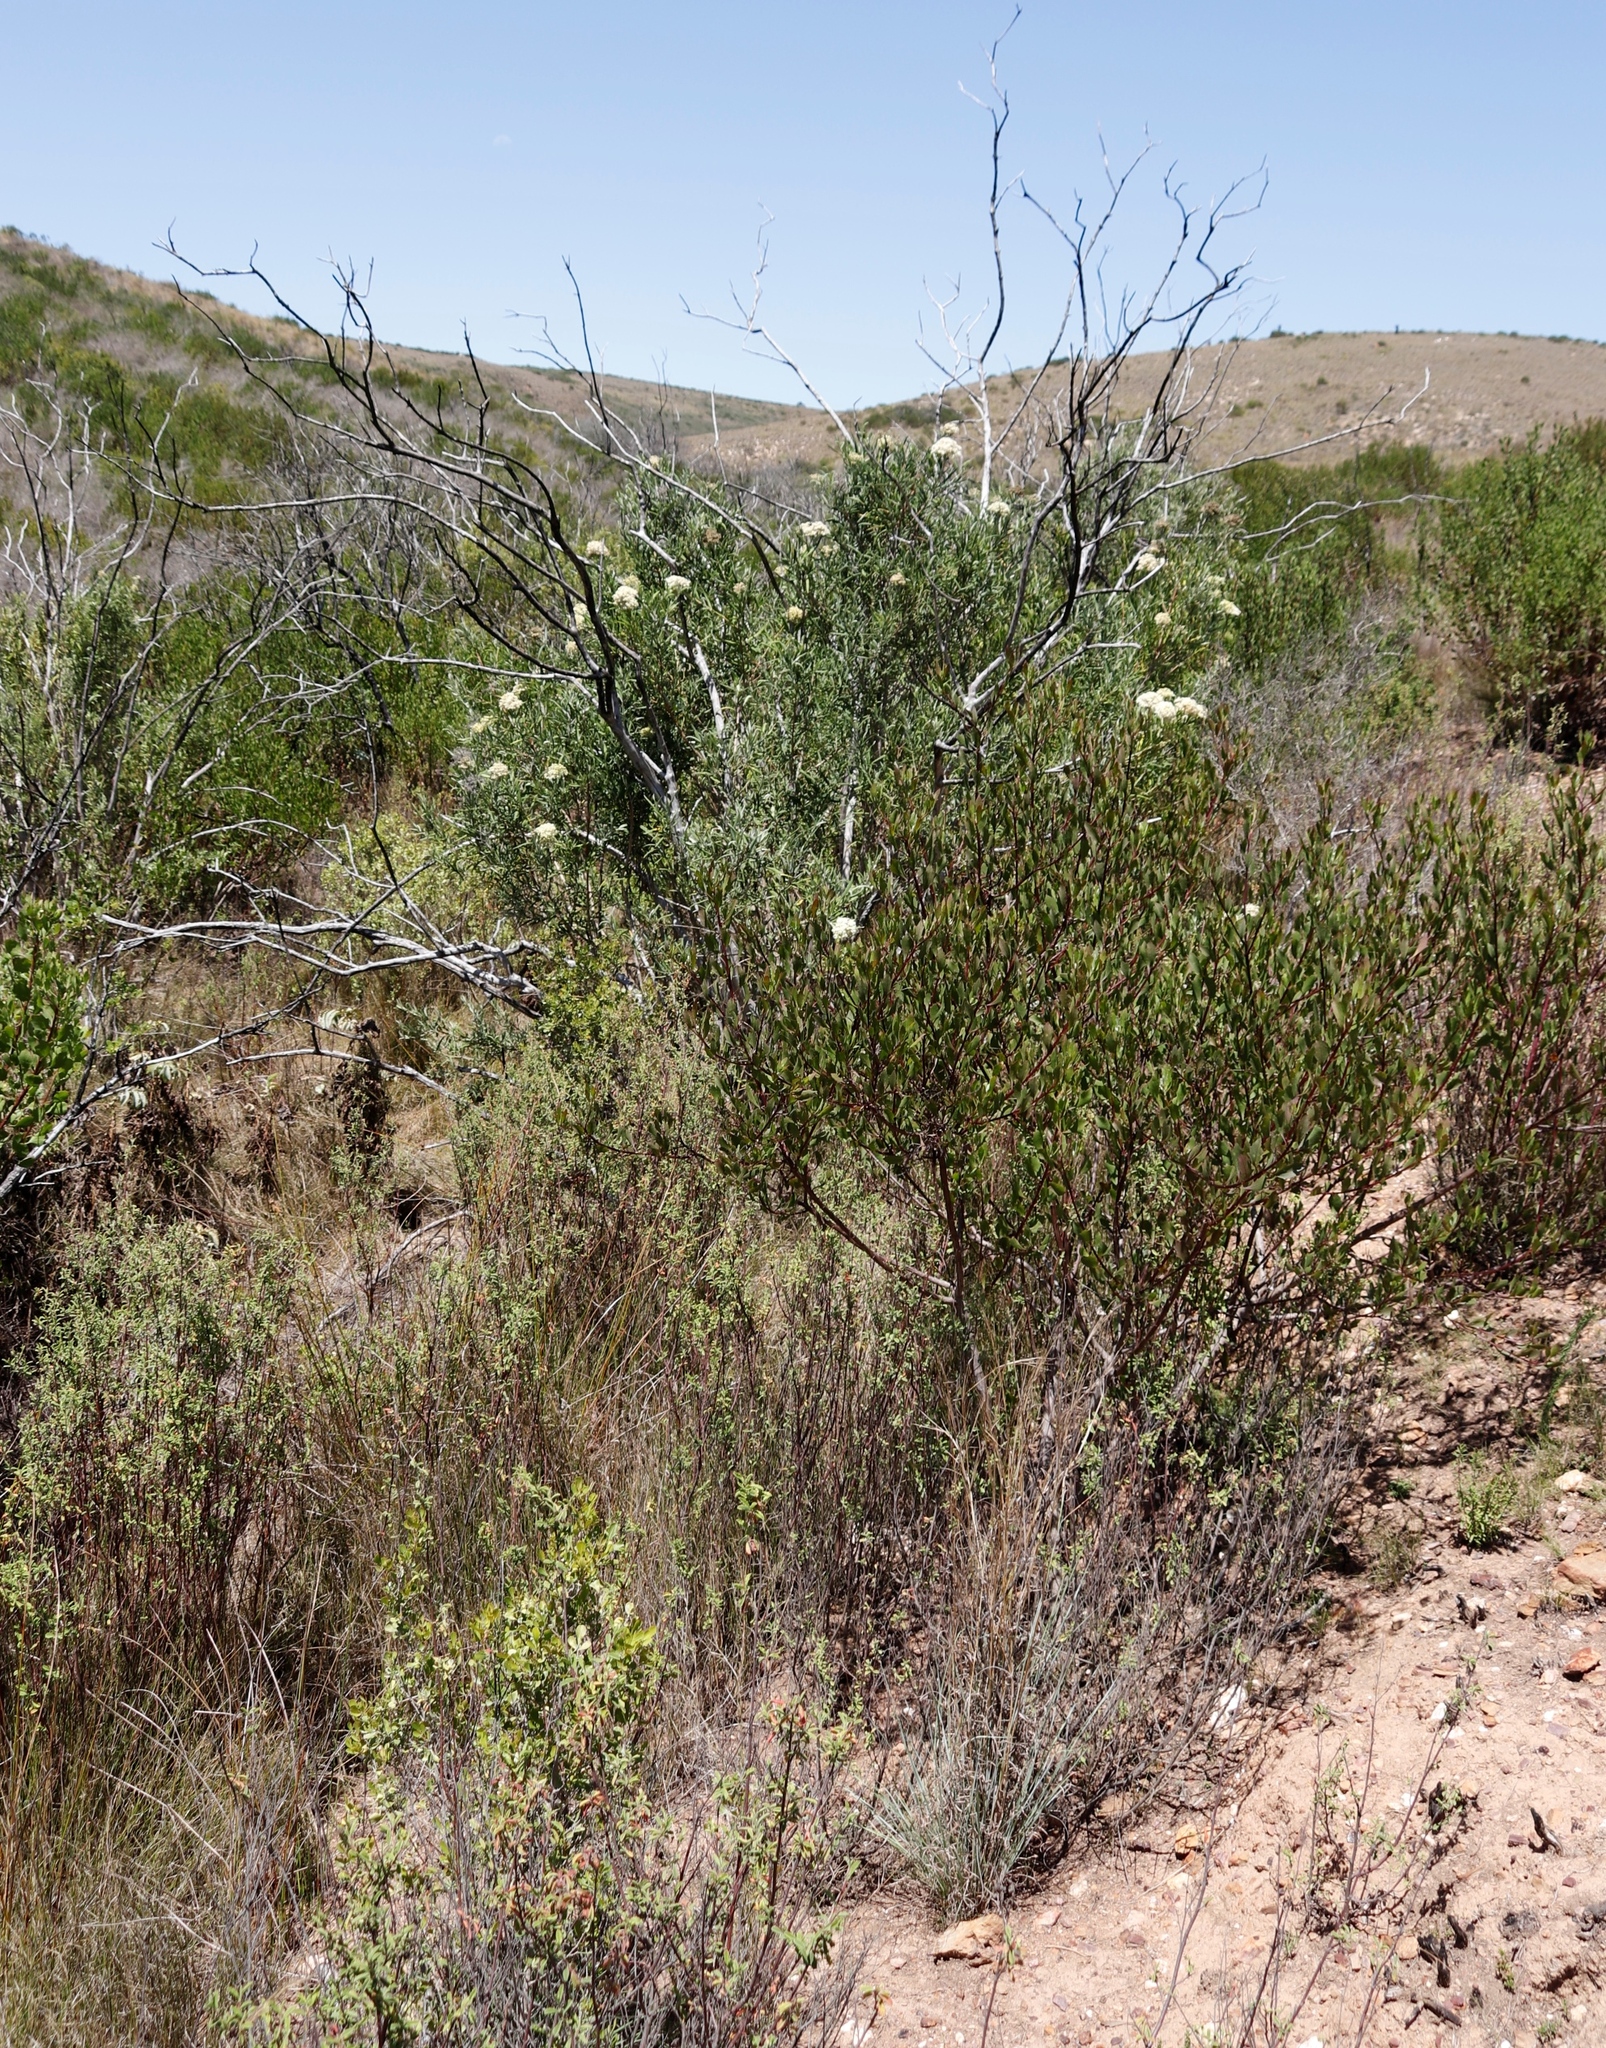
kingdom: Plantae
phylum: Tracheophyta
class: Magnoliopsida
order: Lamiales
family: Scrophulariaceae
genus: Buddleja
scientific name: Buddleja saligna
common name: False olive
